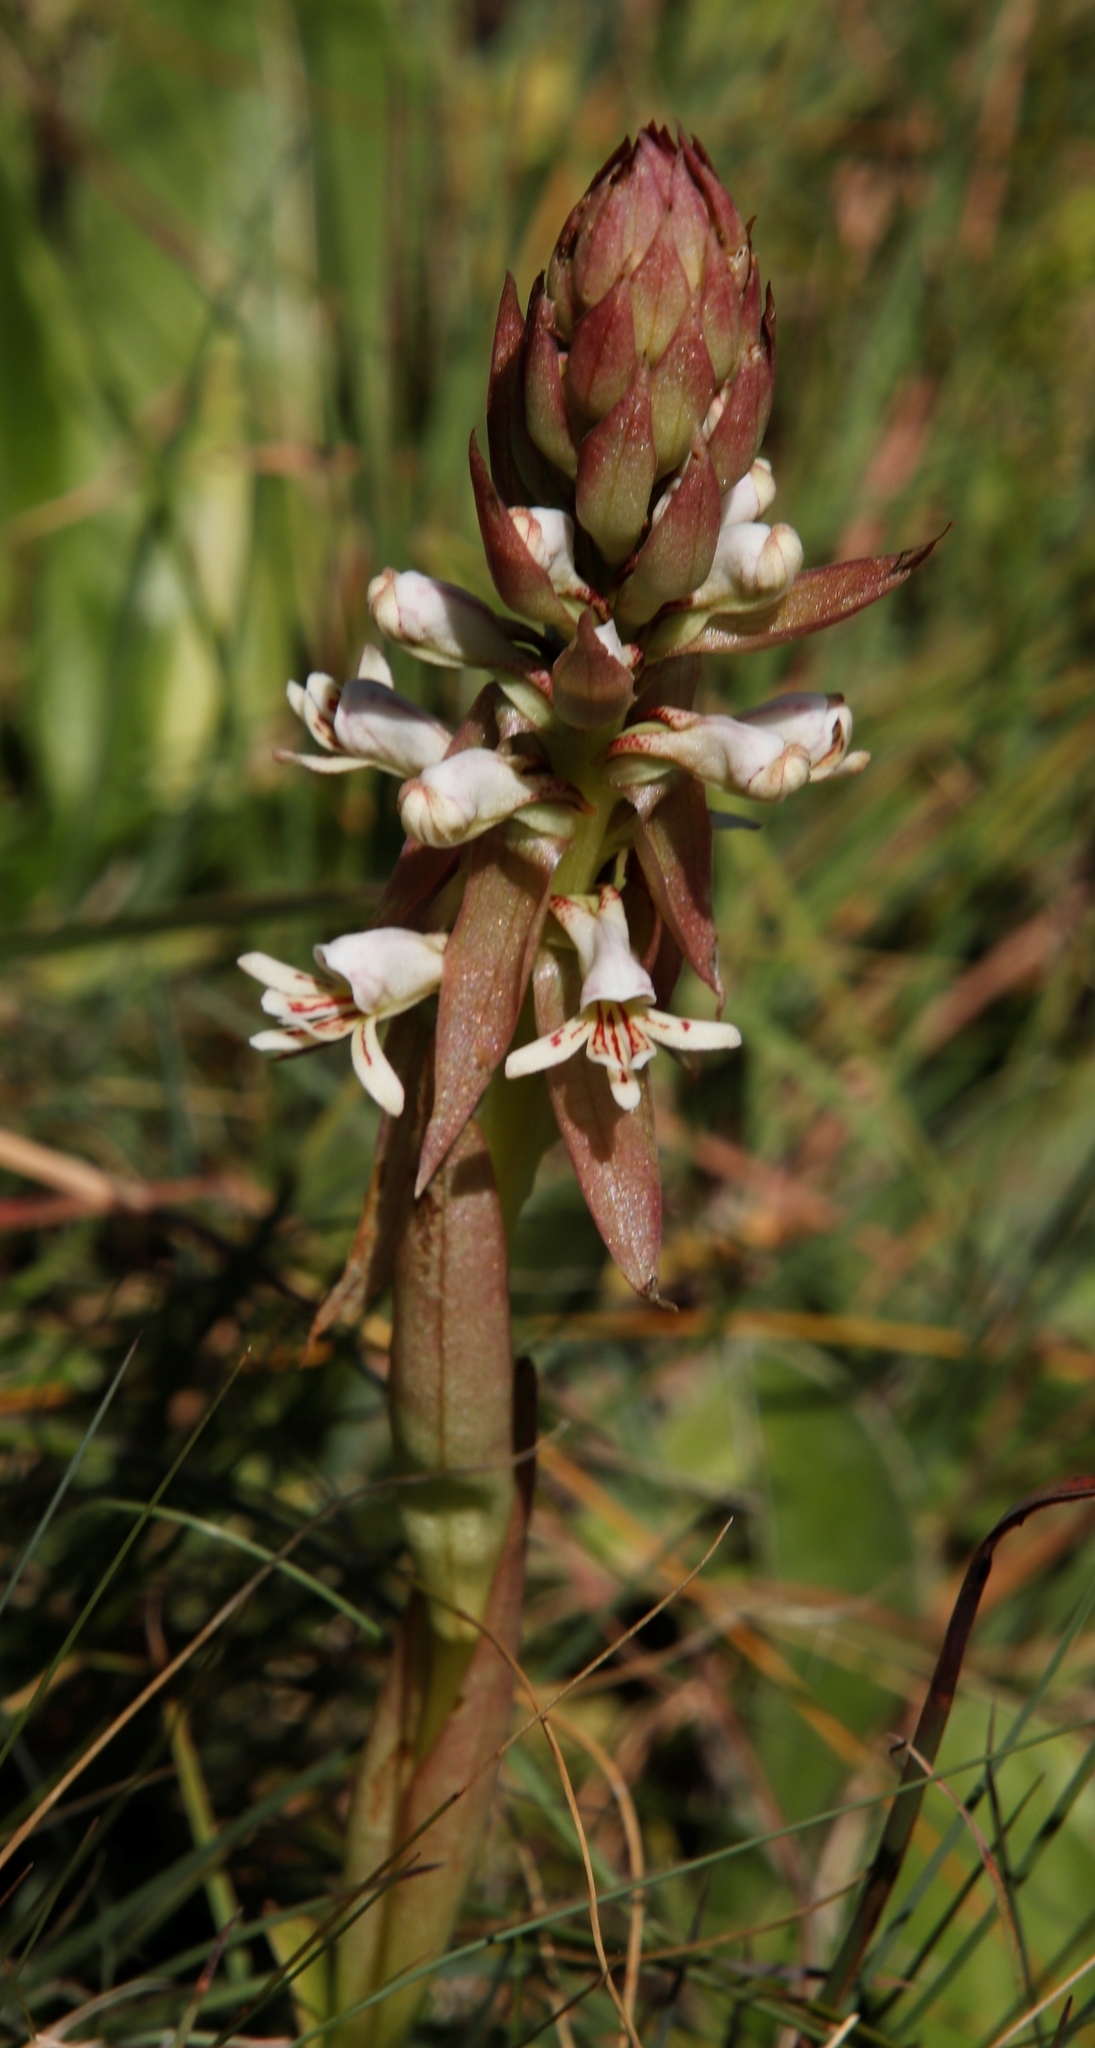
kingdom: Plantae
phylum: Tracheophyta
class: Liliopsida
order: Asparagales
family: Orchidaceae
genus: Satyrium
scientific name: Satyrium cristatum
